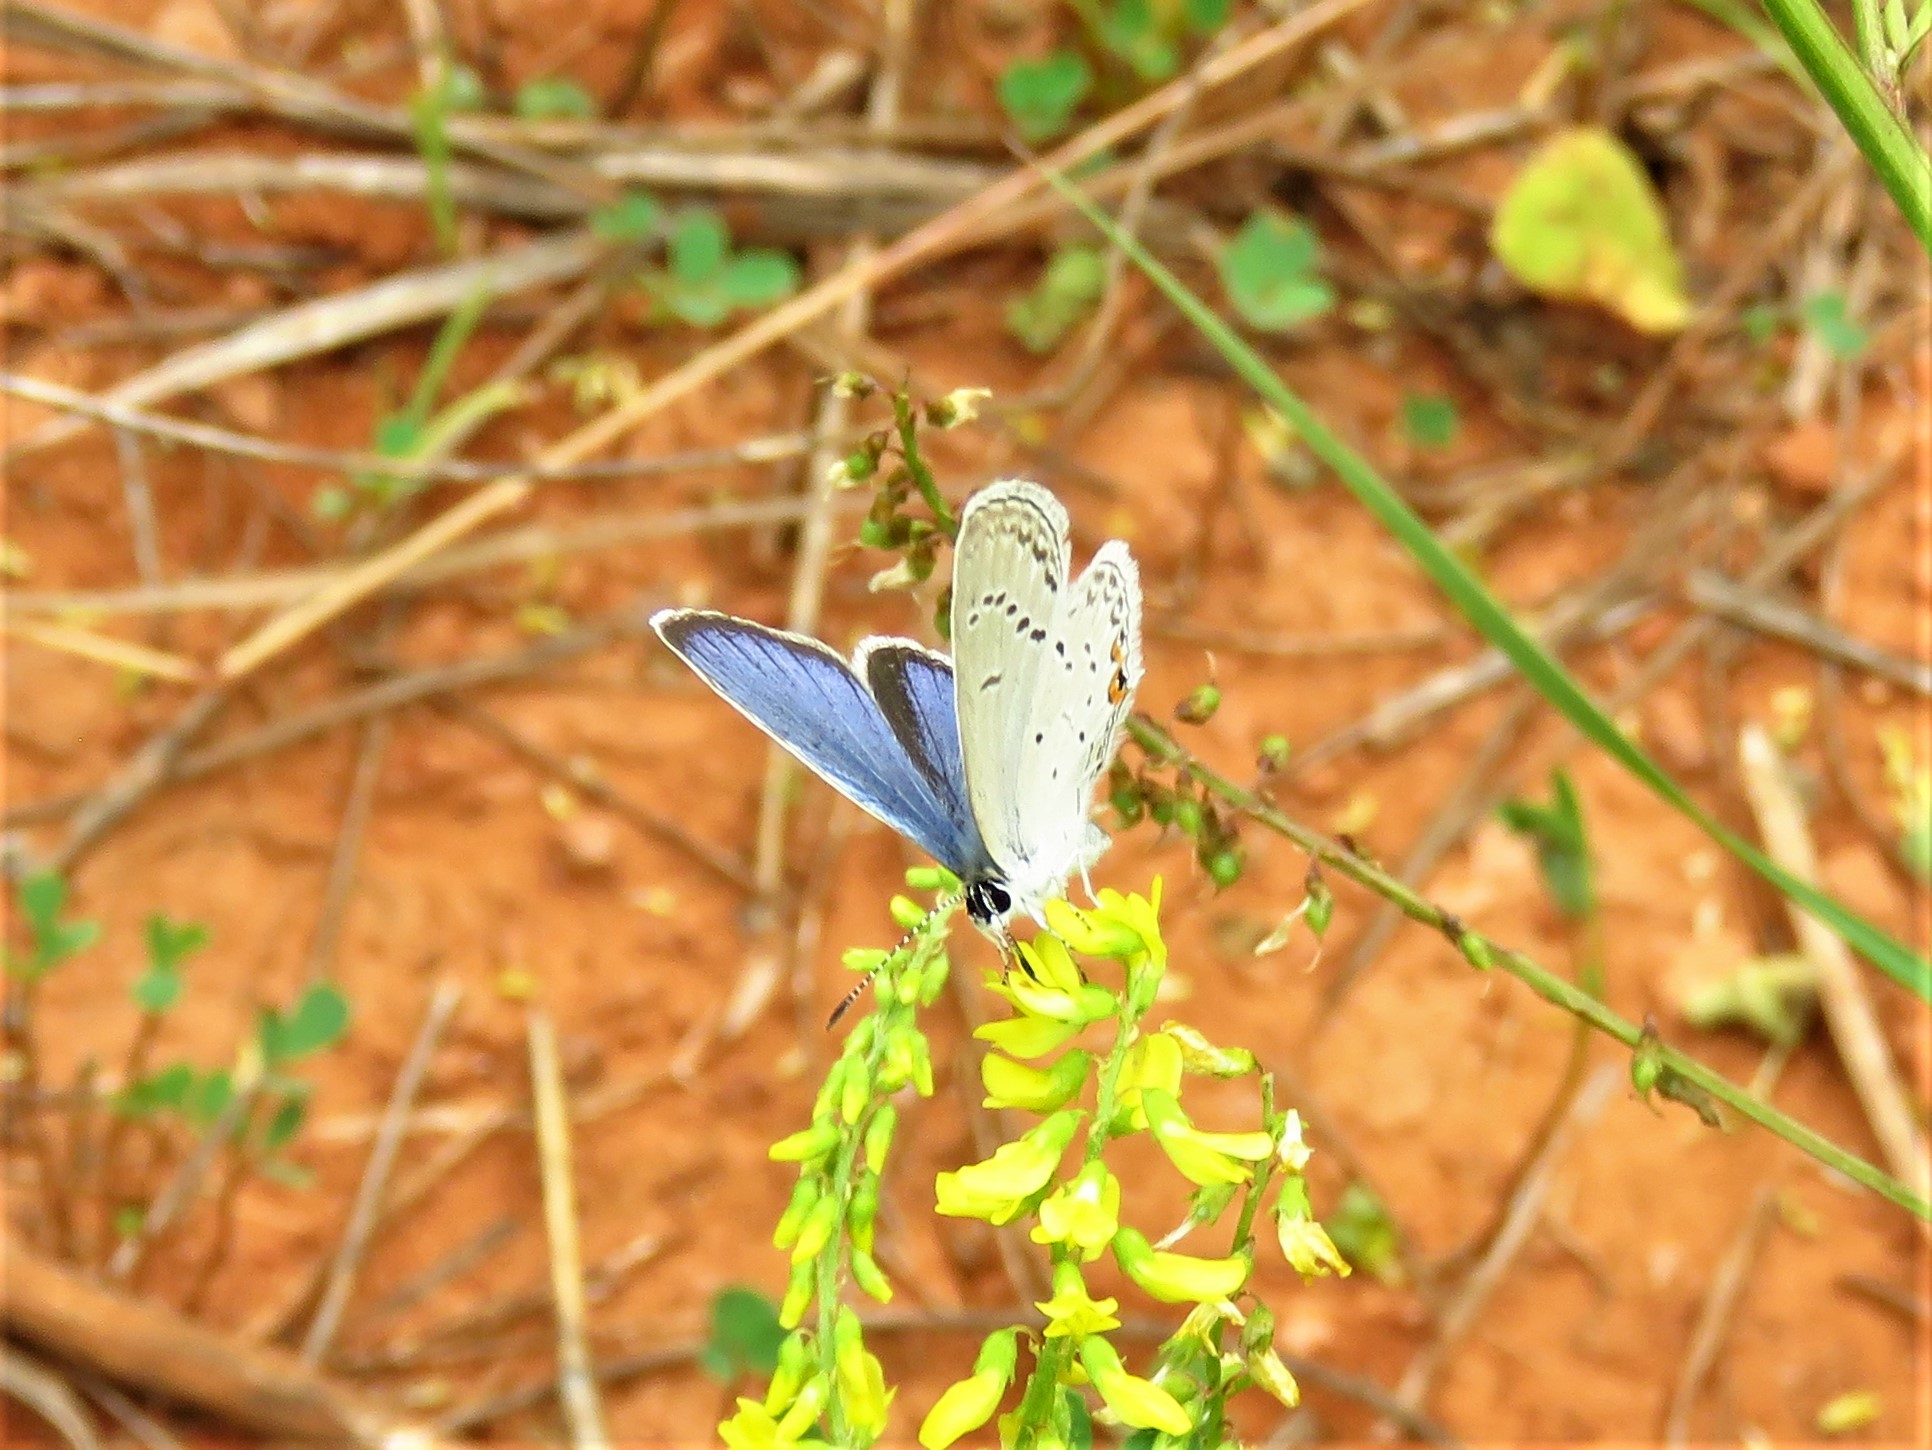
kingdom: Animalia
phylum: Arthropoda
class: Insecta
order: Lepidoptera
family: Lycaenidae
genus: Elkalyce
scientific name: Elkalyce comyntas
